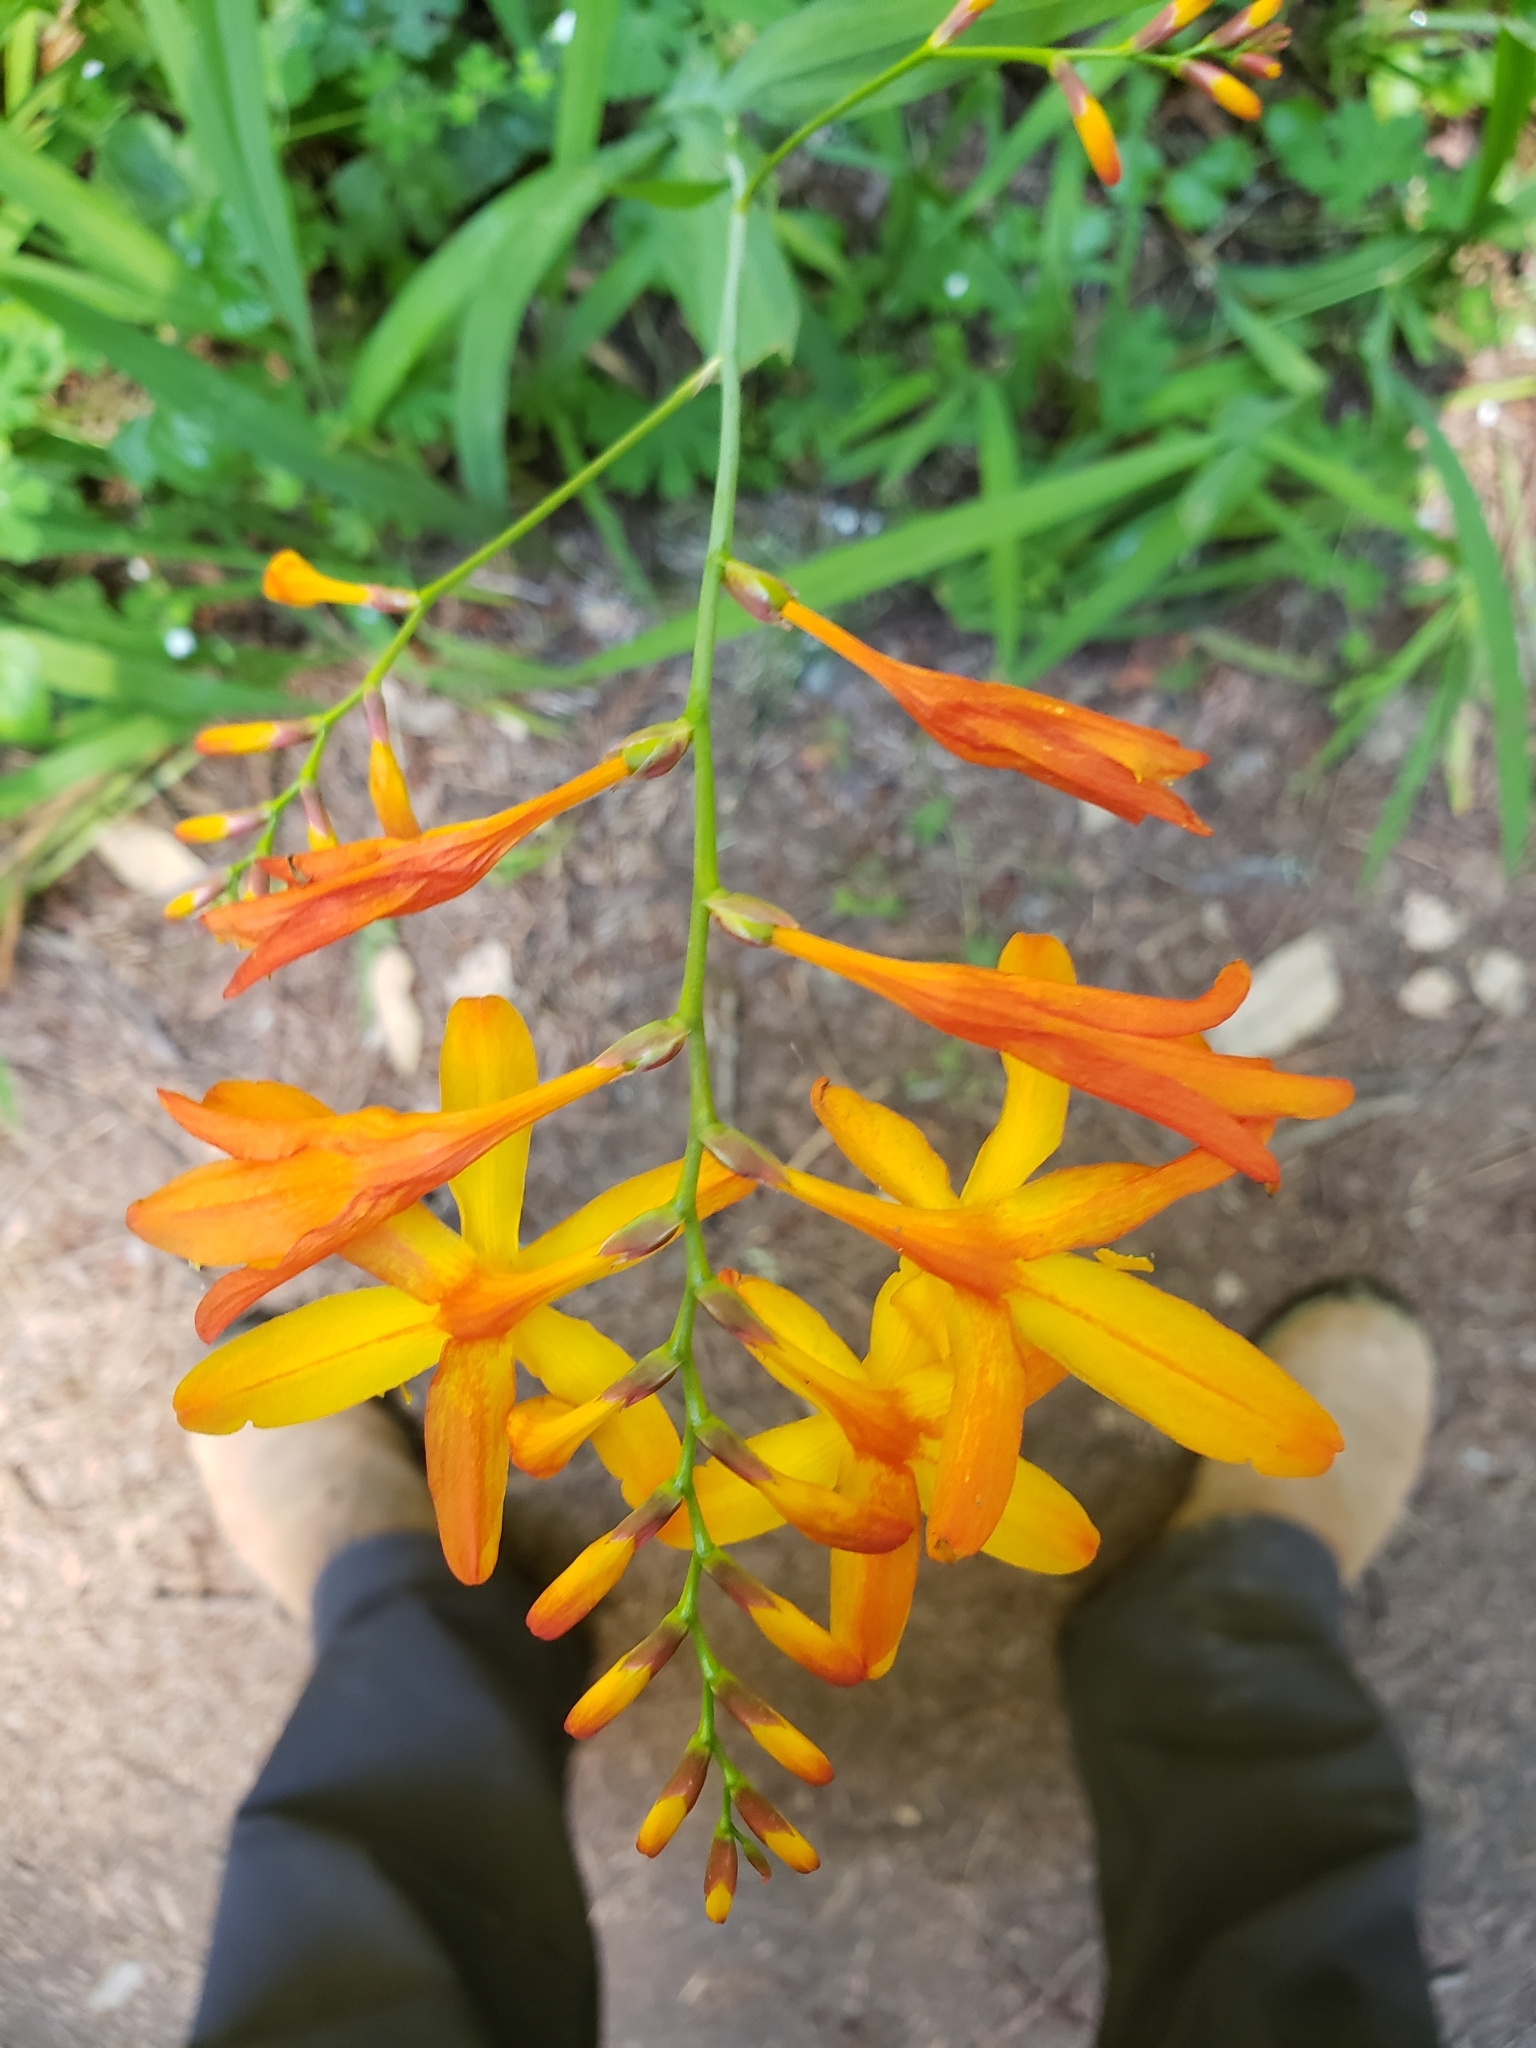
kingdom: Plantae
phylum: Tracheophyta
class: Liliopsida
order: Asparagales
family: Iridaceae
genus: Crocosmia
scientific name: Crocosmia crocosmiiflora
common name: Montbretia
